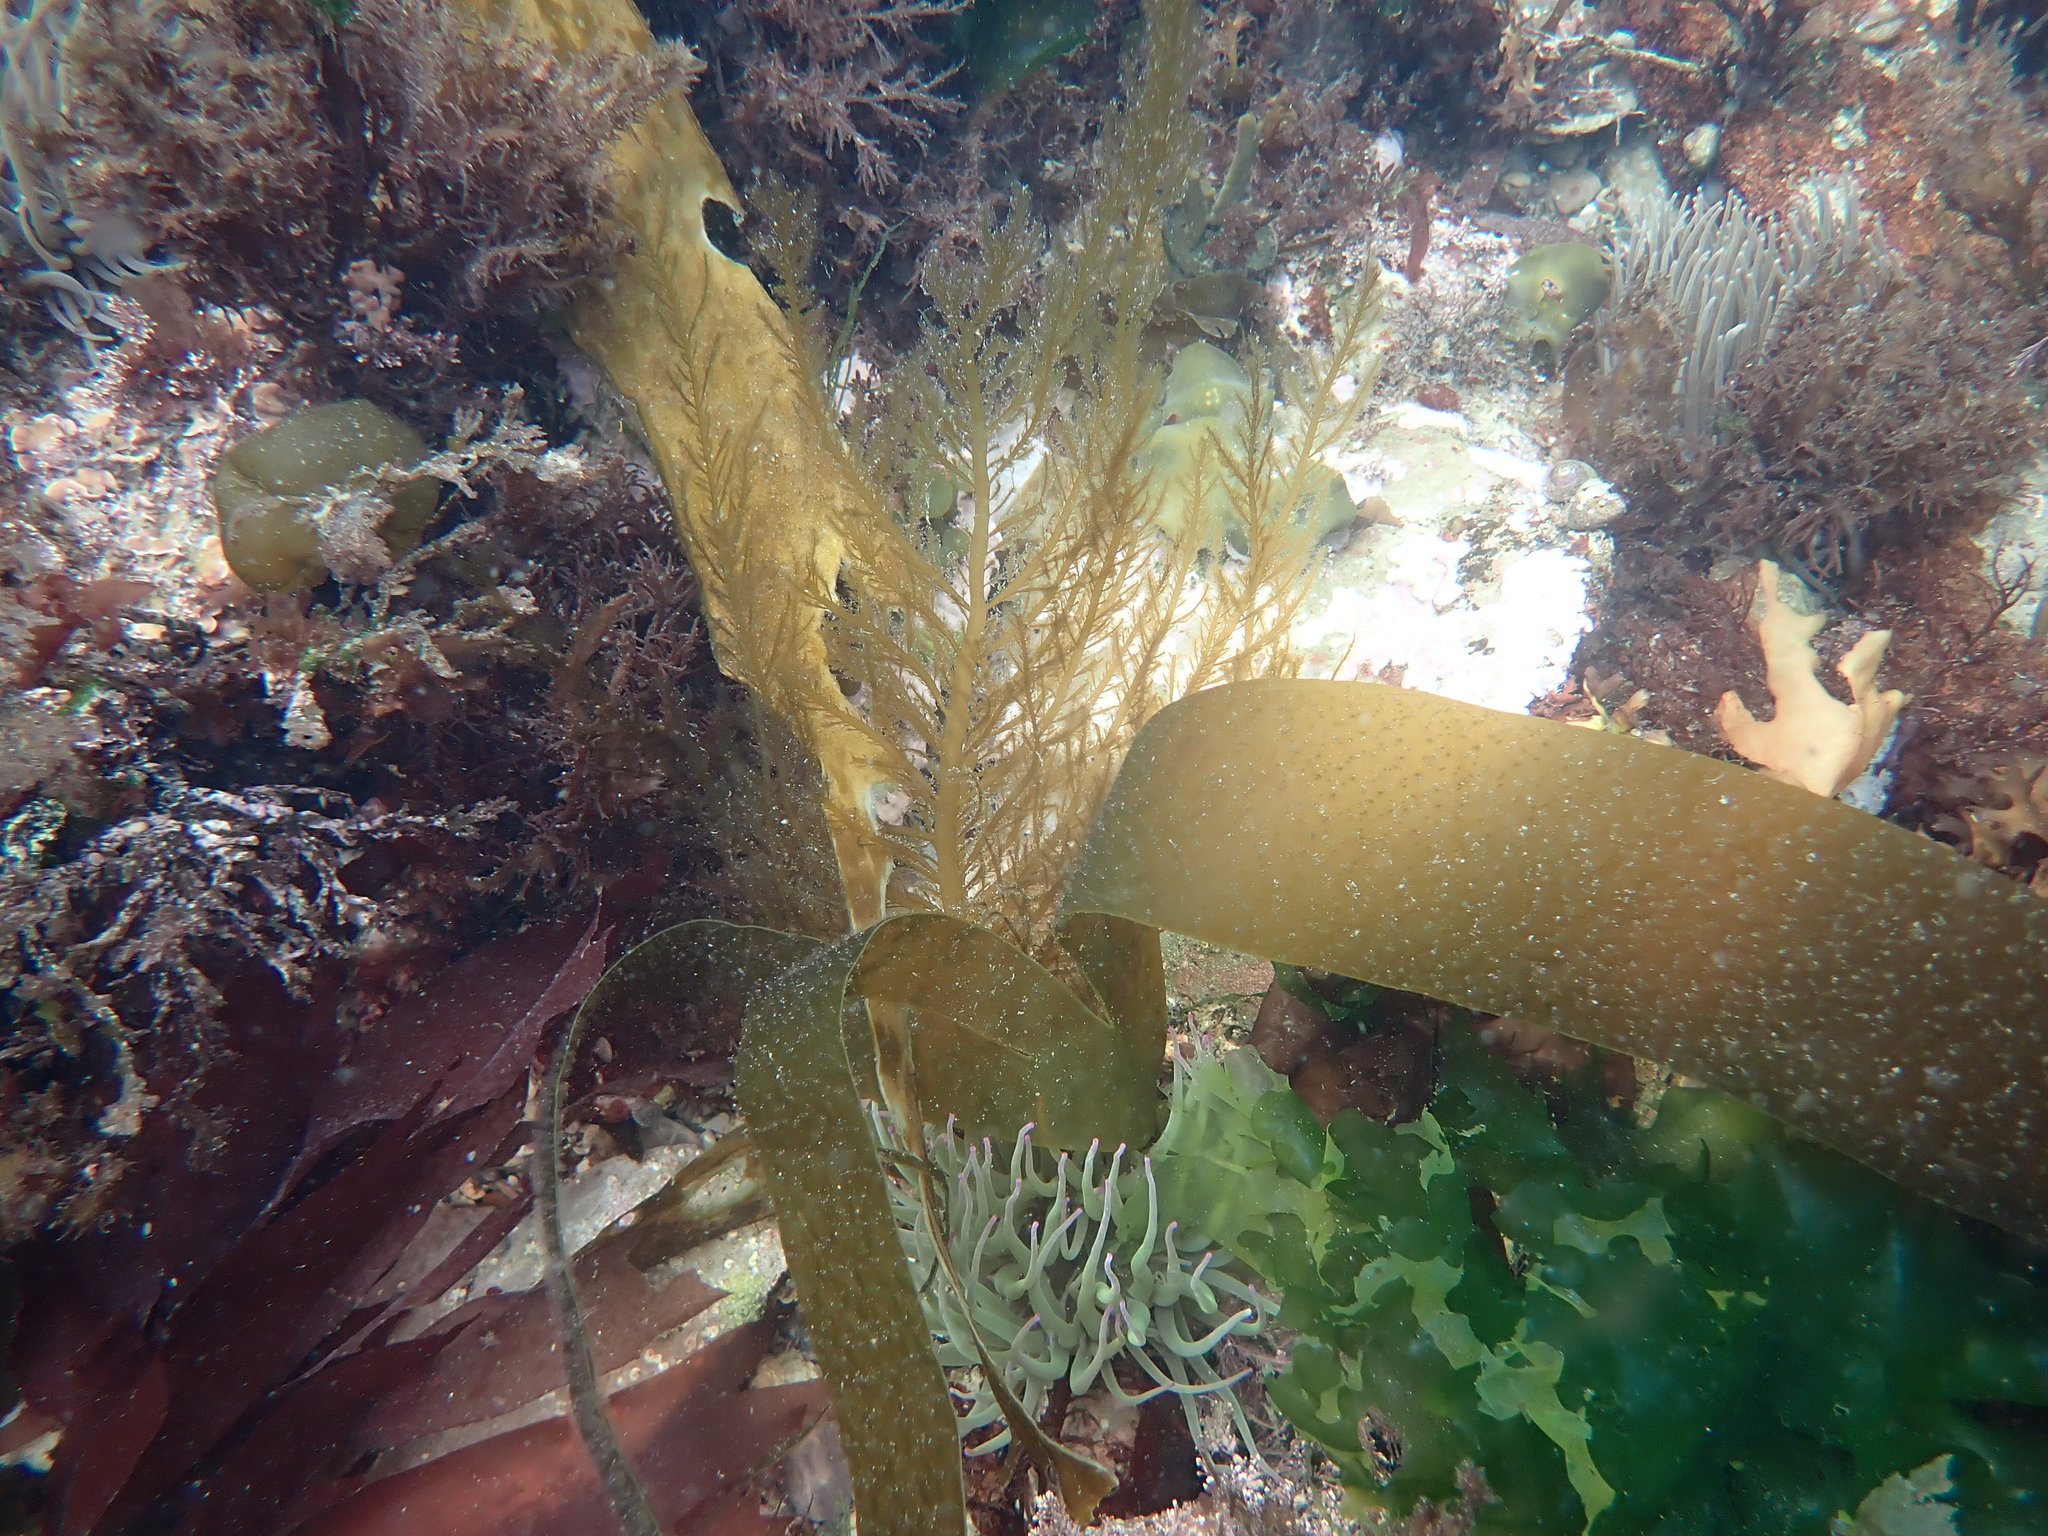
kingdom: Chromista
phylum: Ochrophyta
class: Phaeophyceae
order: Desmarestiales
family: Desmarestiaceae
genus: Desmarestia
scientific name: Desmarestia ligulata
